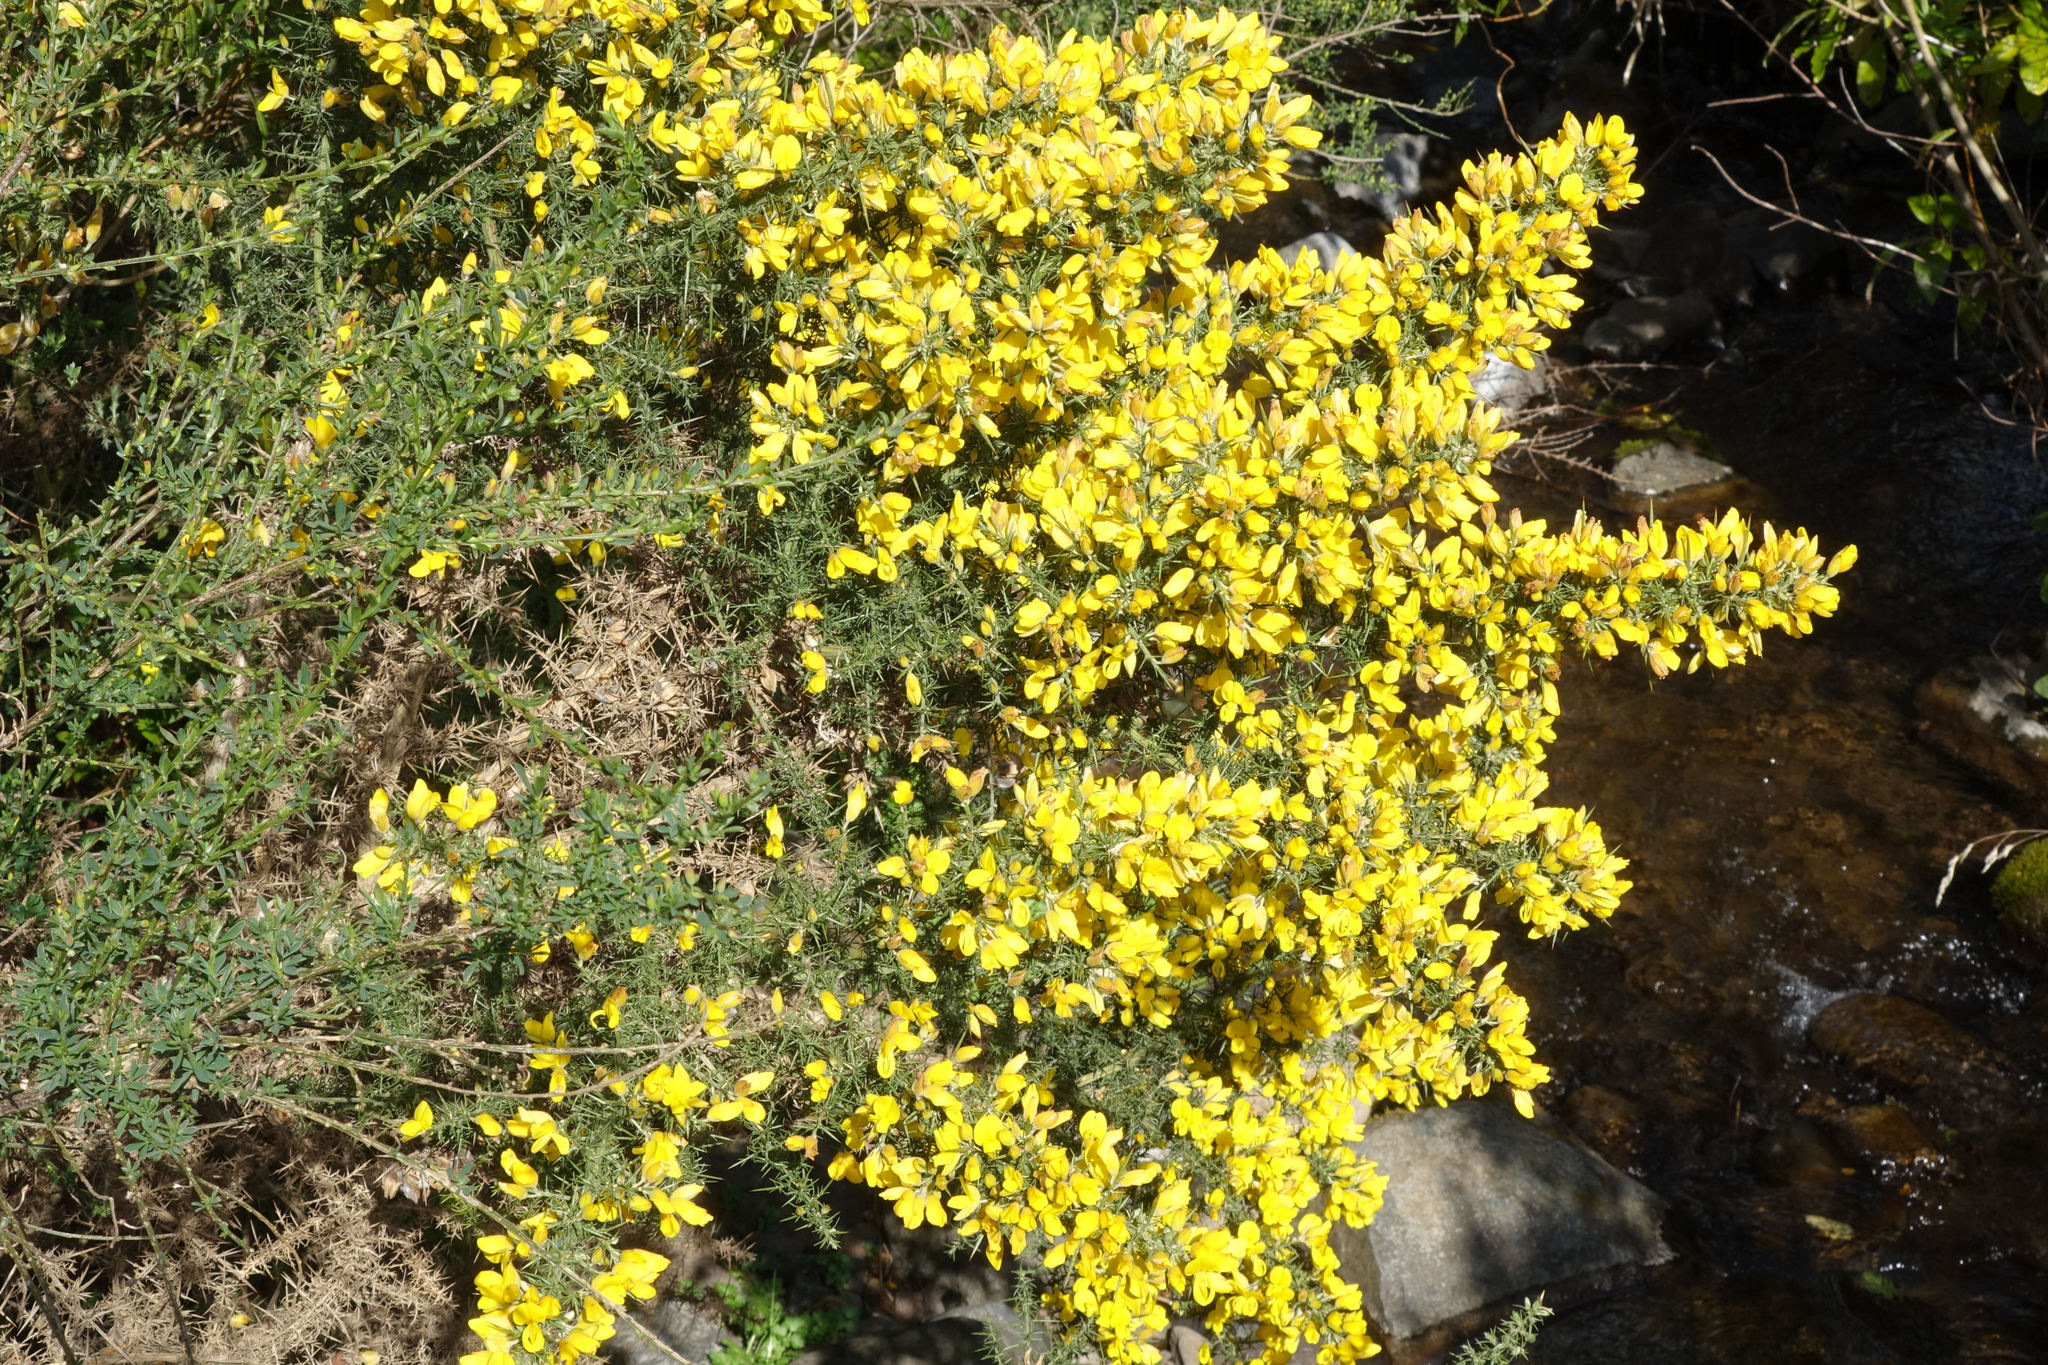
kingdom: Plantae
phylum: Tracheophyta
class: Magnoliopsida
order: Fabales
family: Fabaceae
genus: Ulex
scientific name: Ulex europaeus
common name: Common gorse
